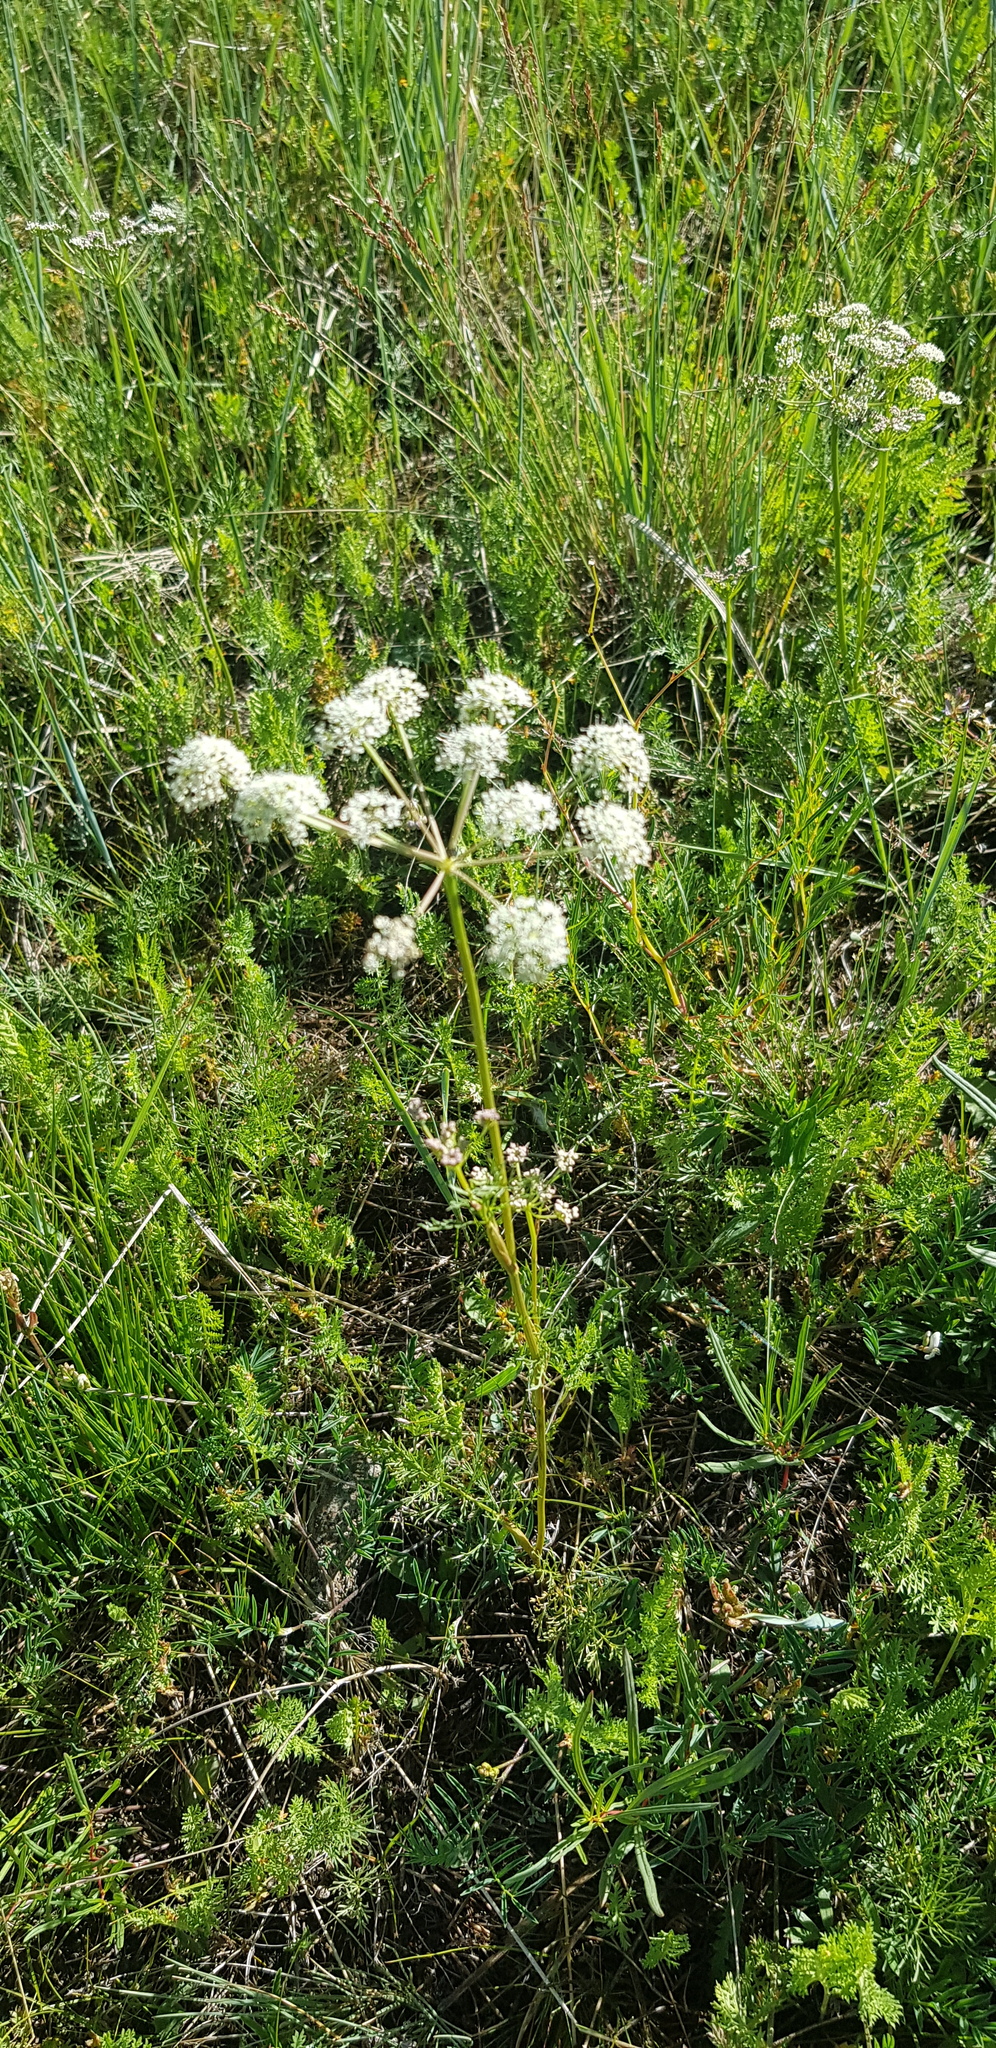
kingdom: Plantae
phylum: Tracheophyta
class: Magnoliopsida
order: Apiales
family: Apiaceae
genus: Peucedanum
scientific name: Peucedanum vaginatum
